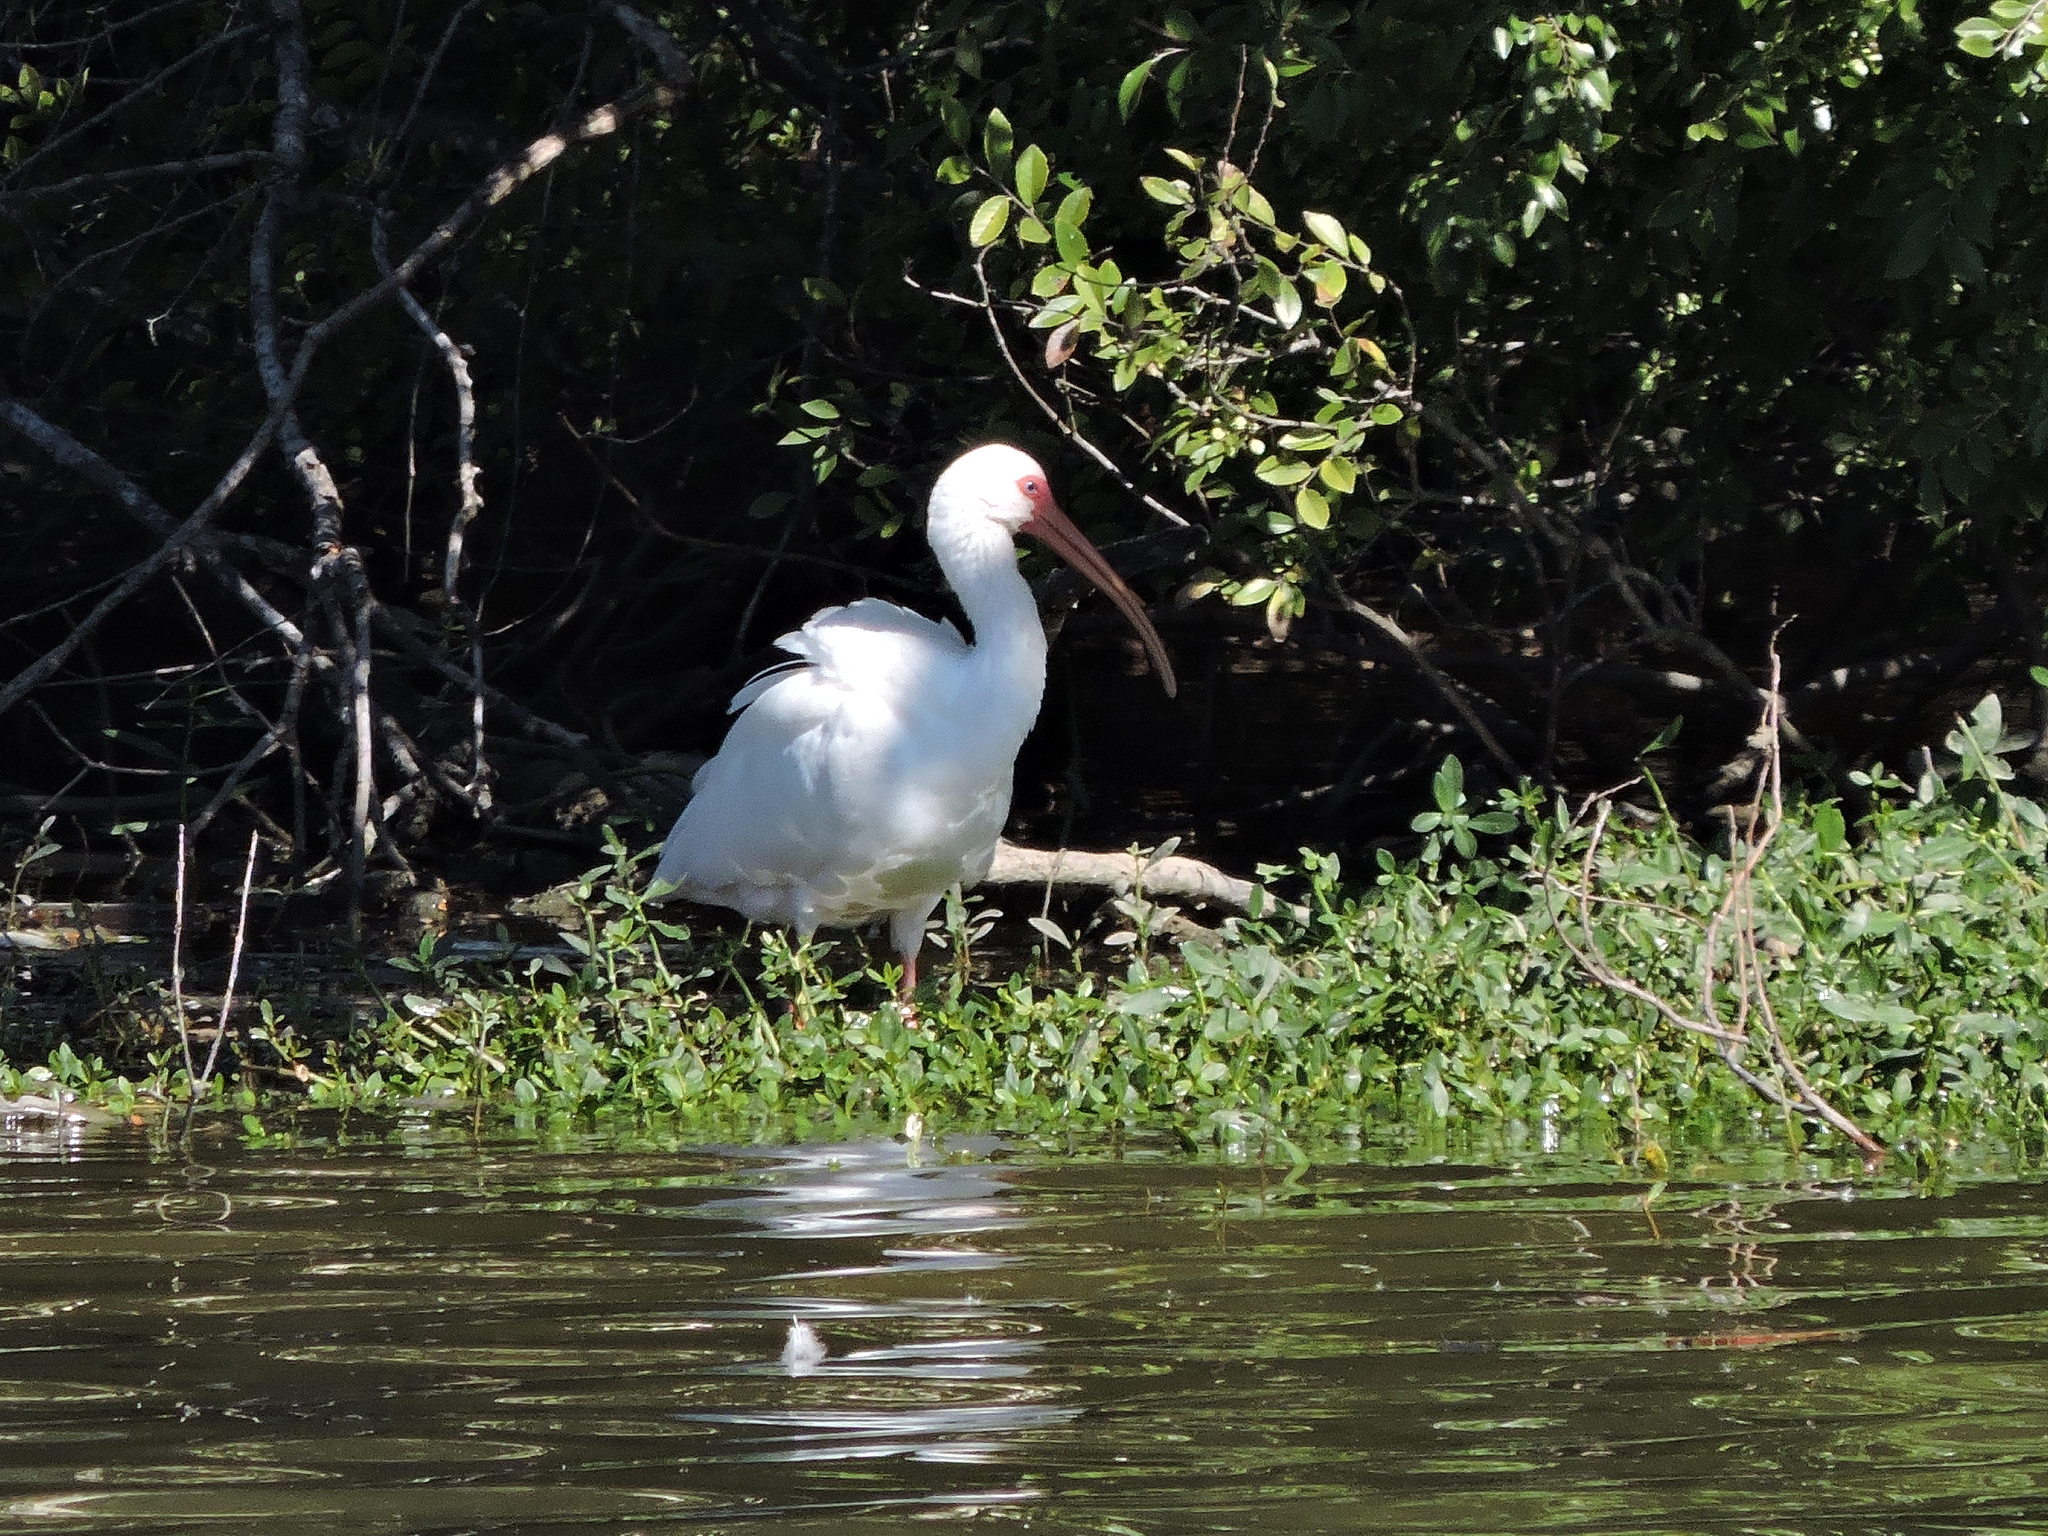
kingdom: Animalia
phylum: Chordata
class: Aves
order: Pelecaniformes
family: Threskiornithidae
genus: Eudocimus
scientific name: Eudocimus albus
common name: White ibis
